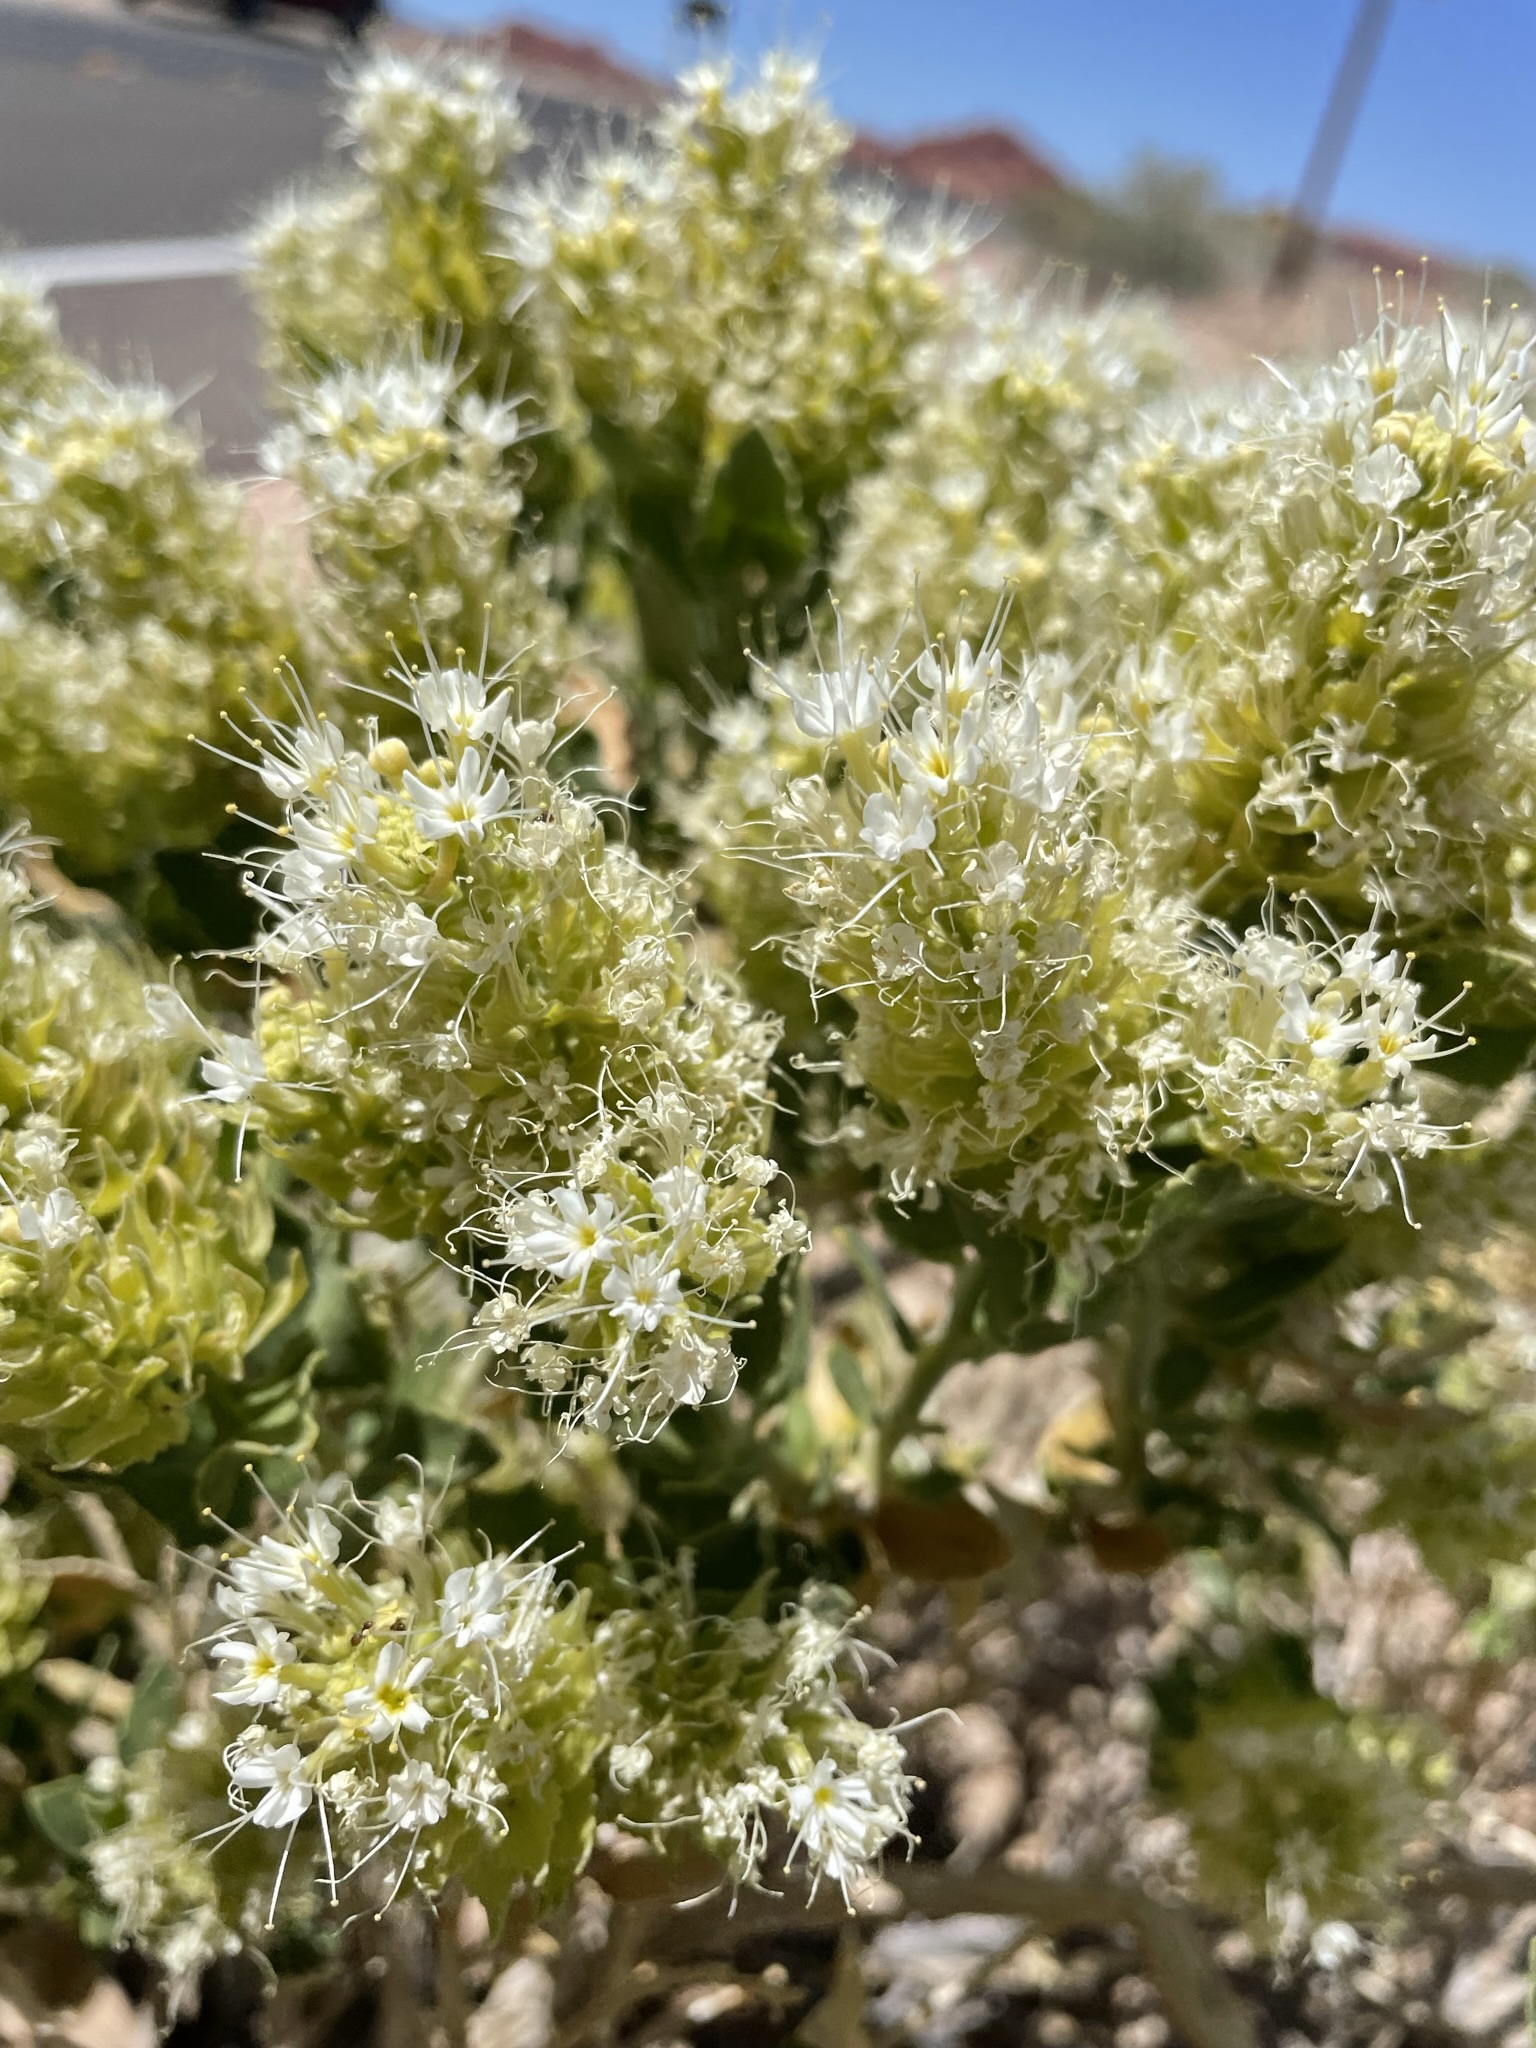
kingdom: Plantae
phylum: Tracheophyta
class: Magnoliopsida
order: Cornales
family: Loasaceae
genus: Petalonyx
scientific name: Petalonyx nitidus
